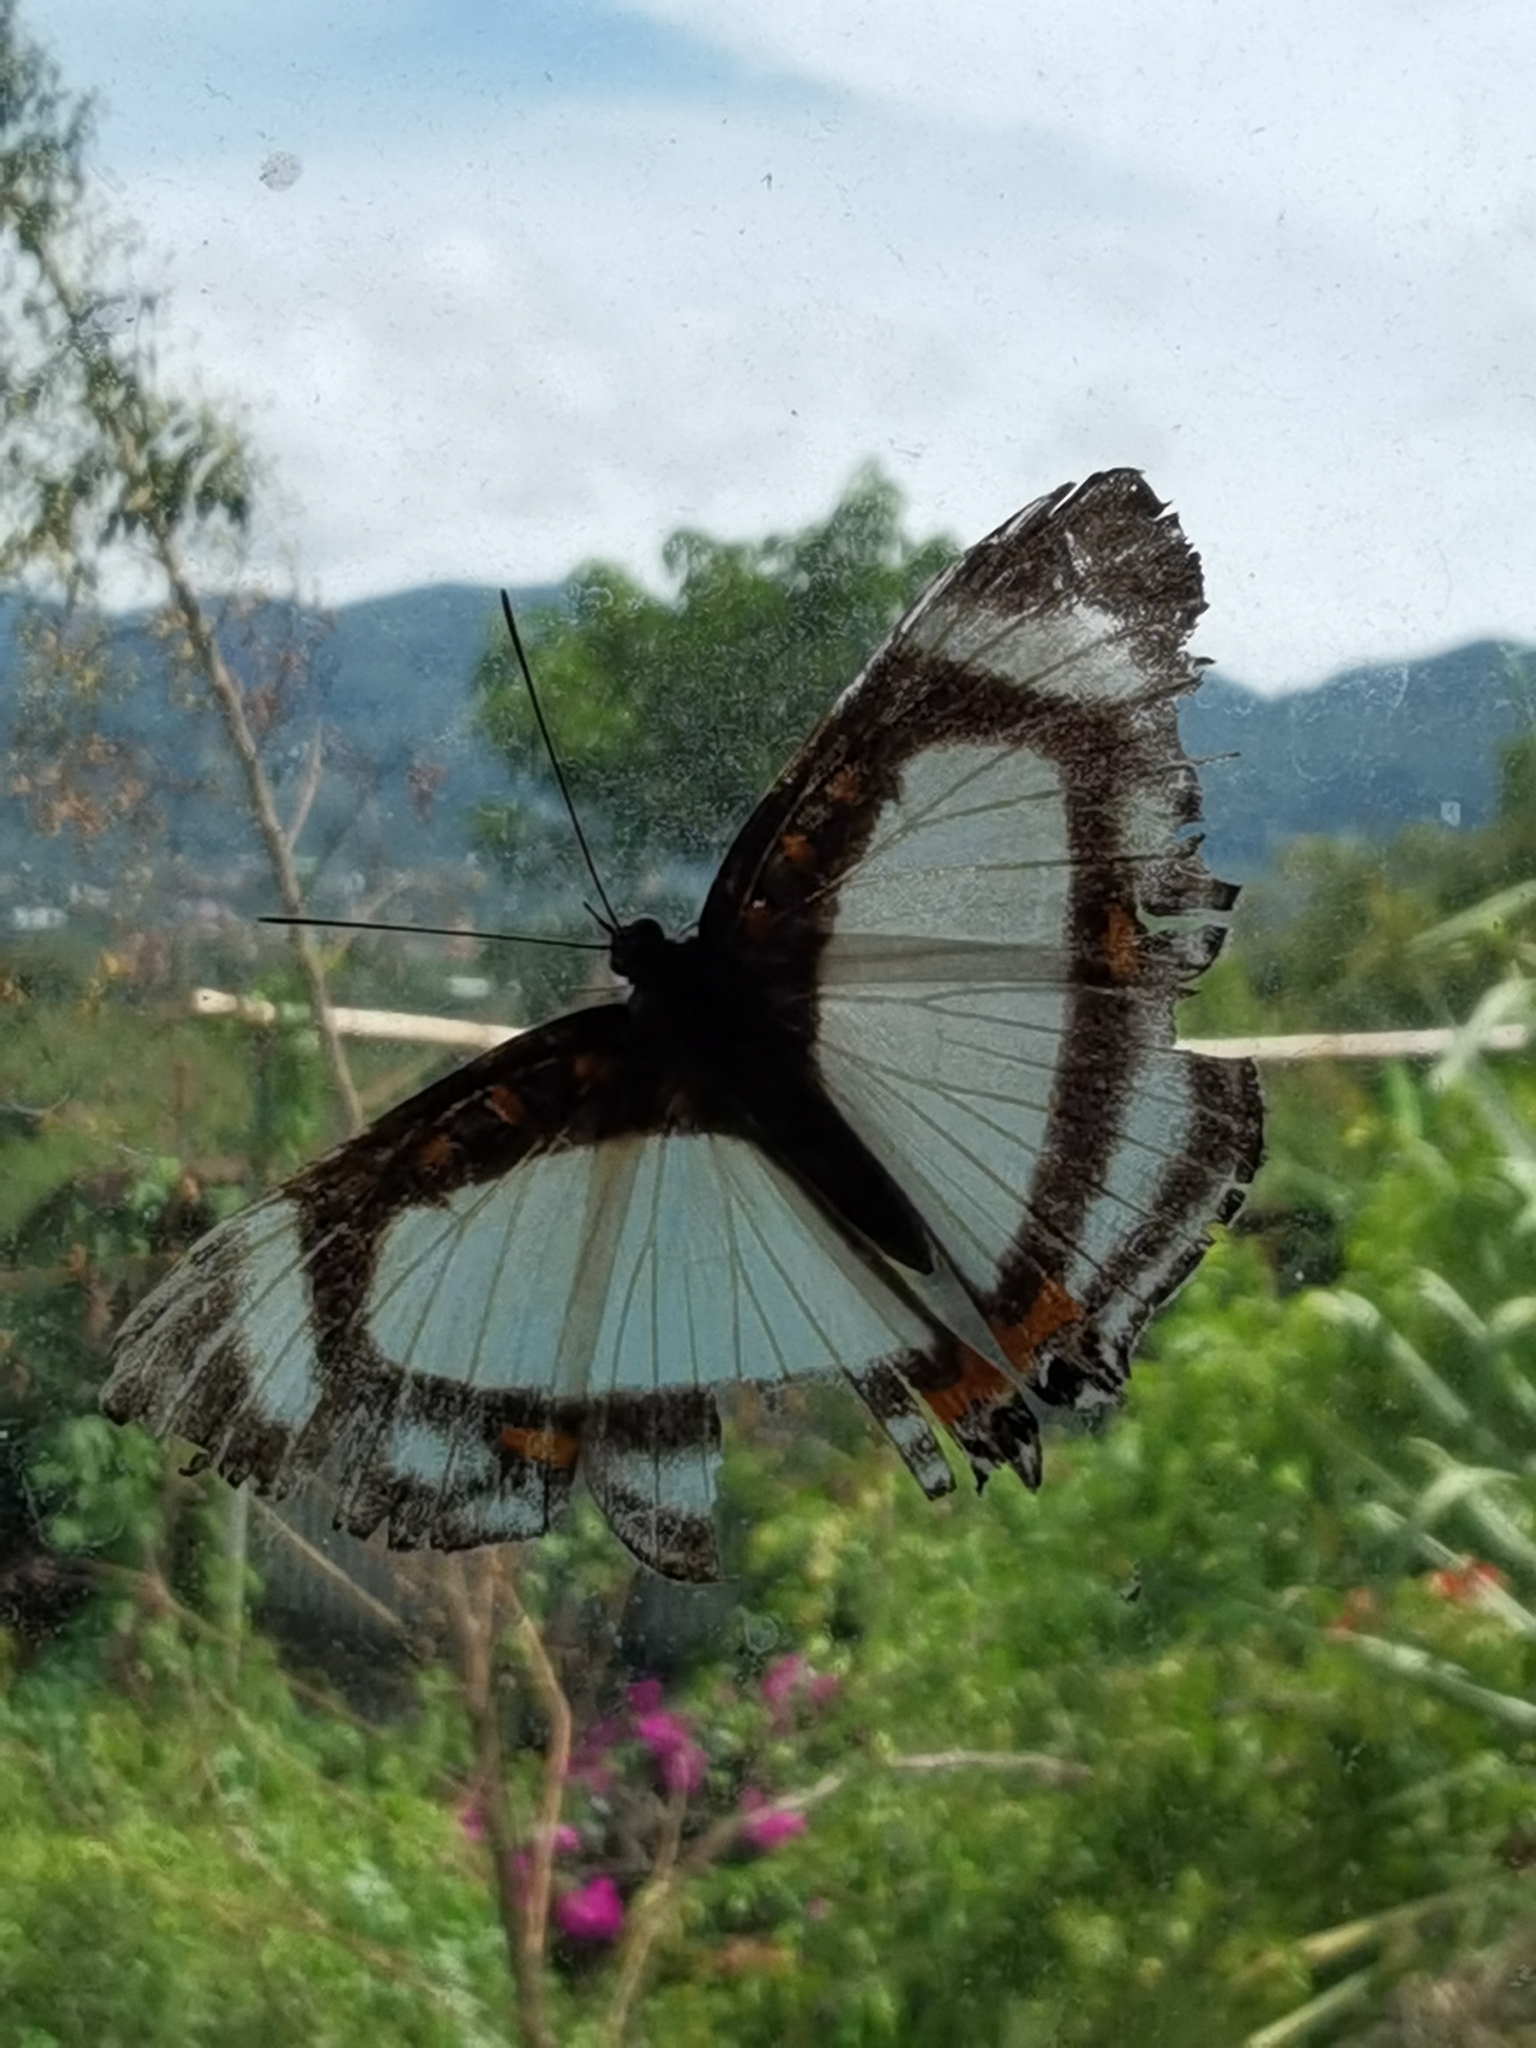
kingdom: Animalia
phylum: Arthropoda
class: Insecta
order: Lepidoptera
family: Riodinidae
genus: Thisbe
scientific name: Thisbe lycorias
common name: Banner metalmark
